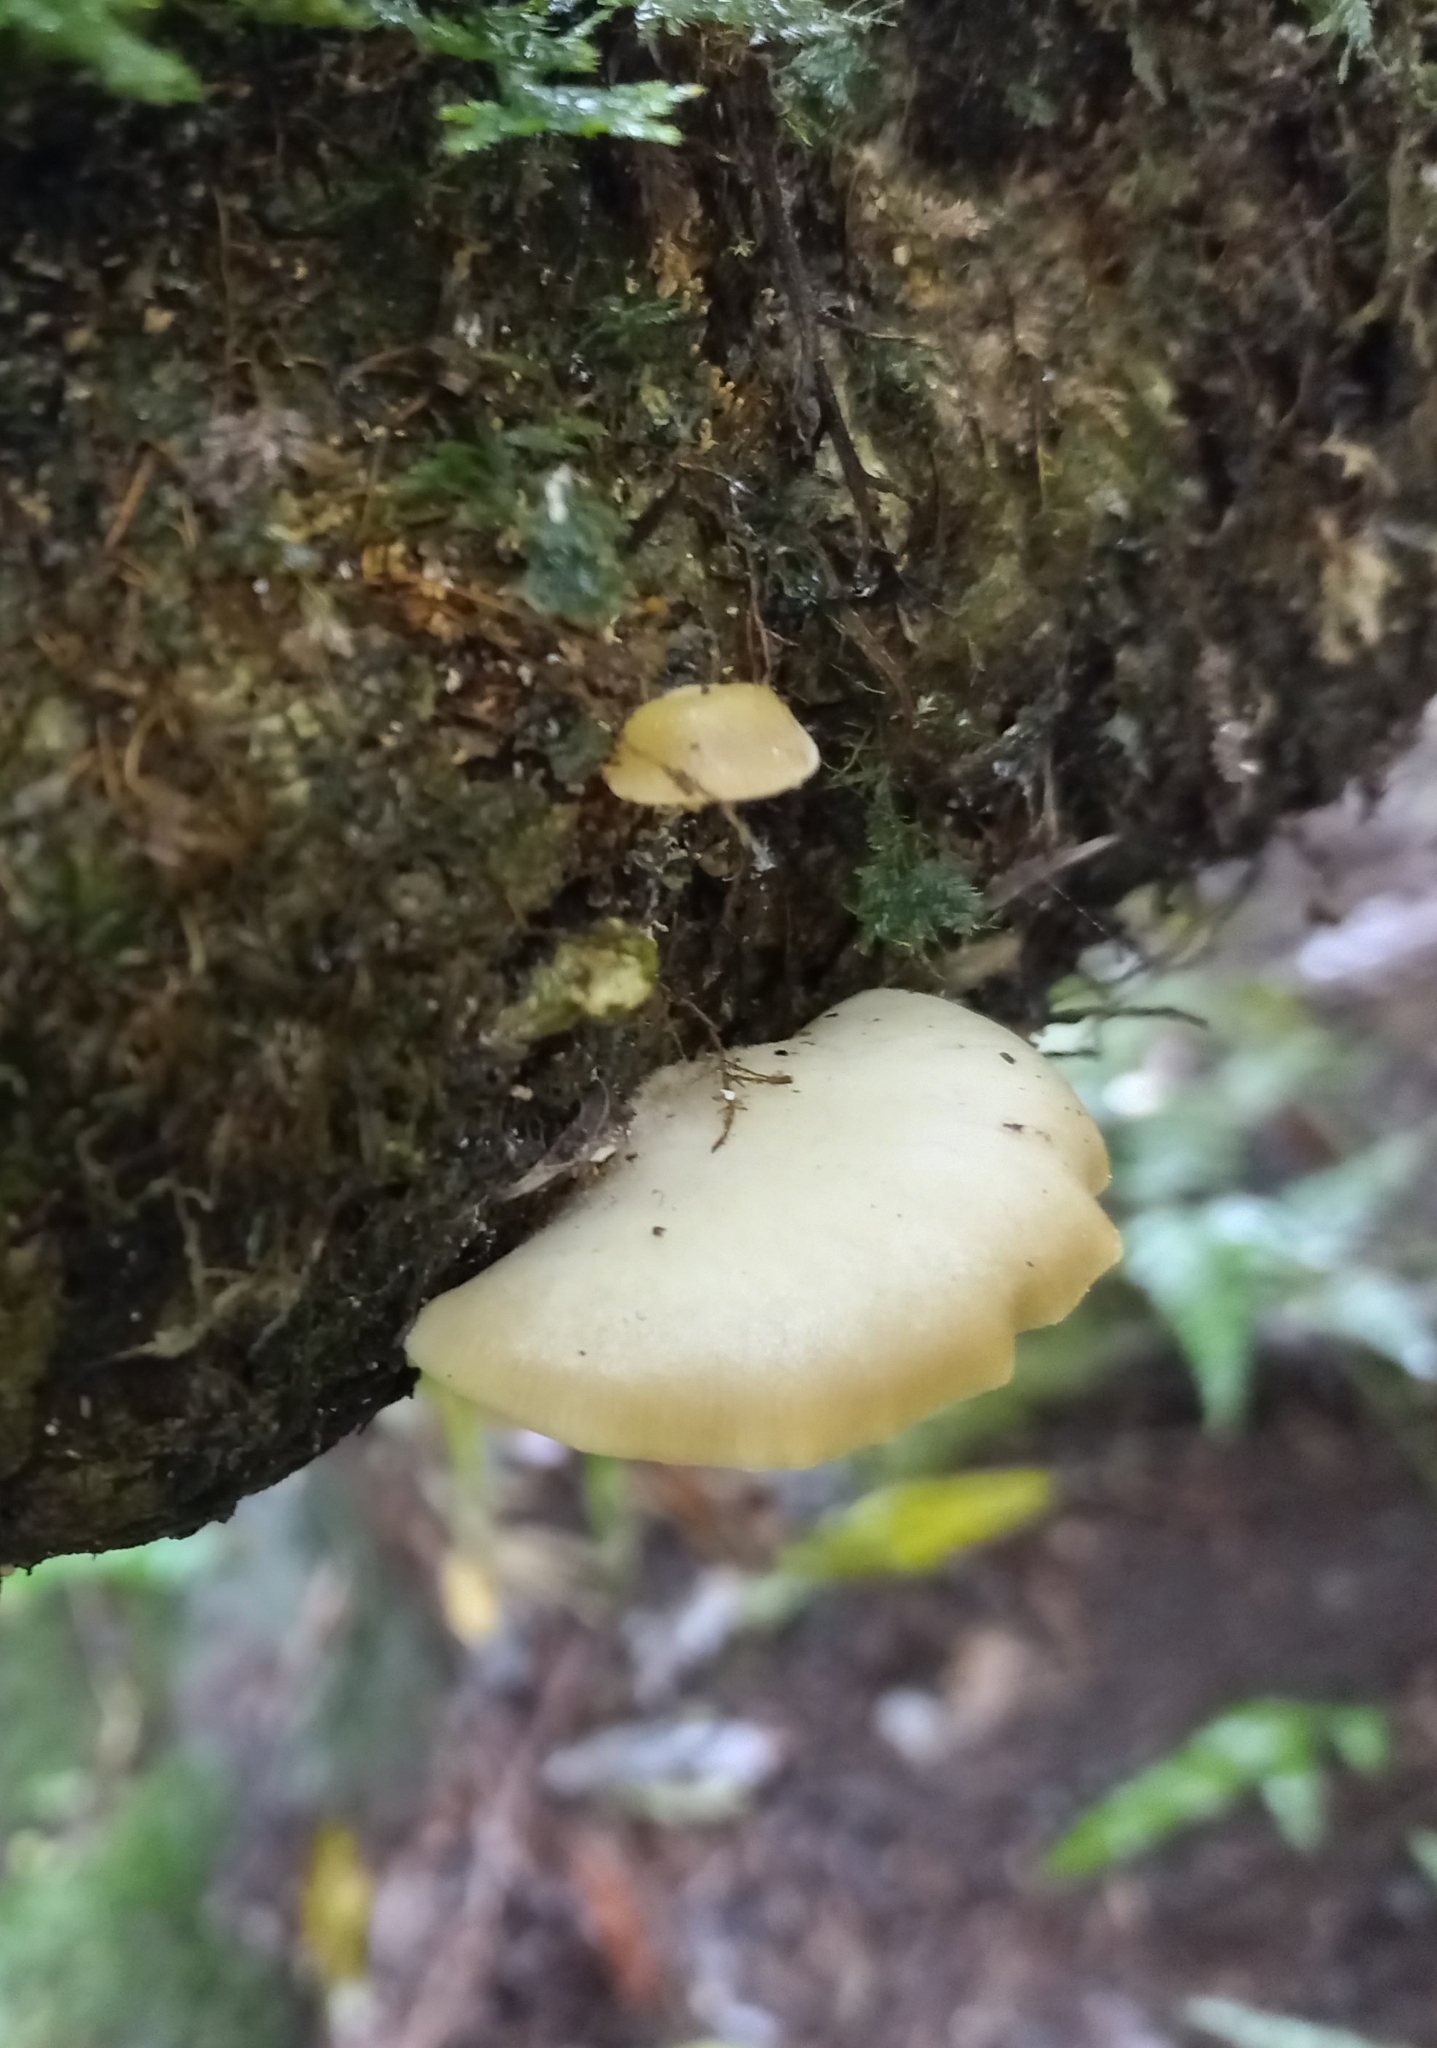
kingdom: Fungi
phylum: Basidiomycota
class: Agaricomycetes
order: Agaricales
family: Tricholomataceae
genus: Conchomyces
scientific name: Conchomyces bursiformis
